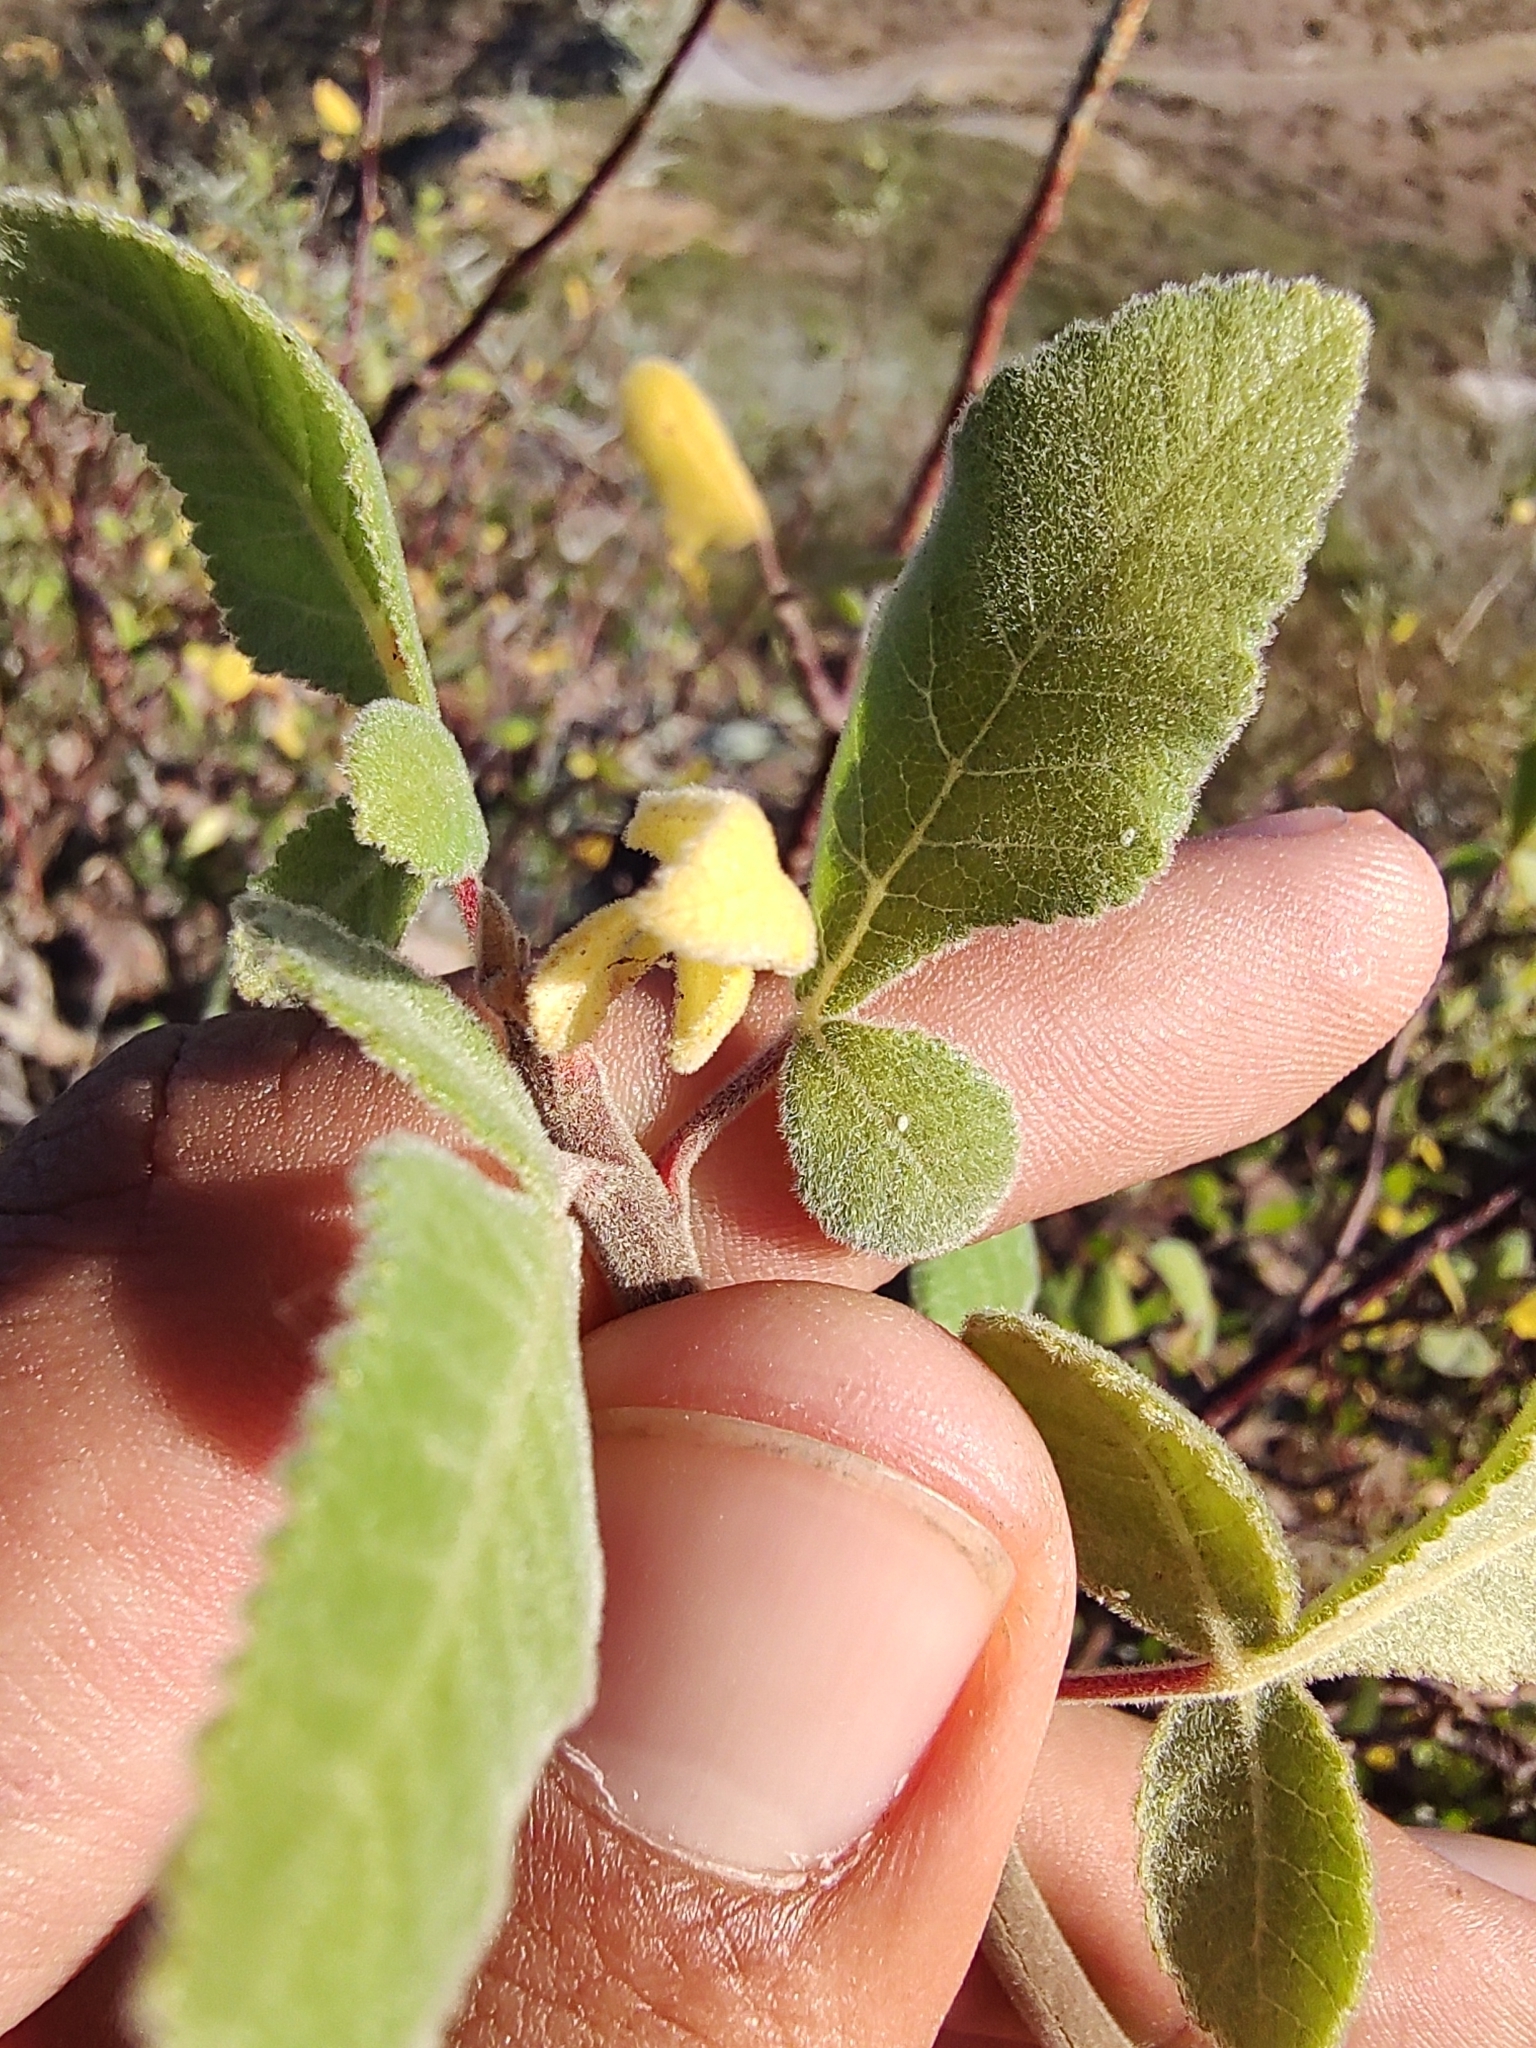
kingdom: Plantae
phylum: Tracheophyta
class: Magnoliopsida
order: Sapindales
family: Burseraceae
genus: Bursera
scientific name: Bursera hindsiana
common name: Red elephant tree
